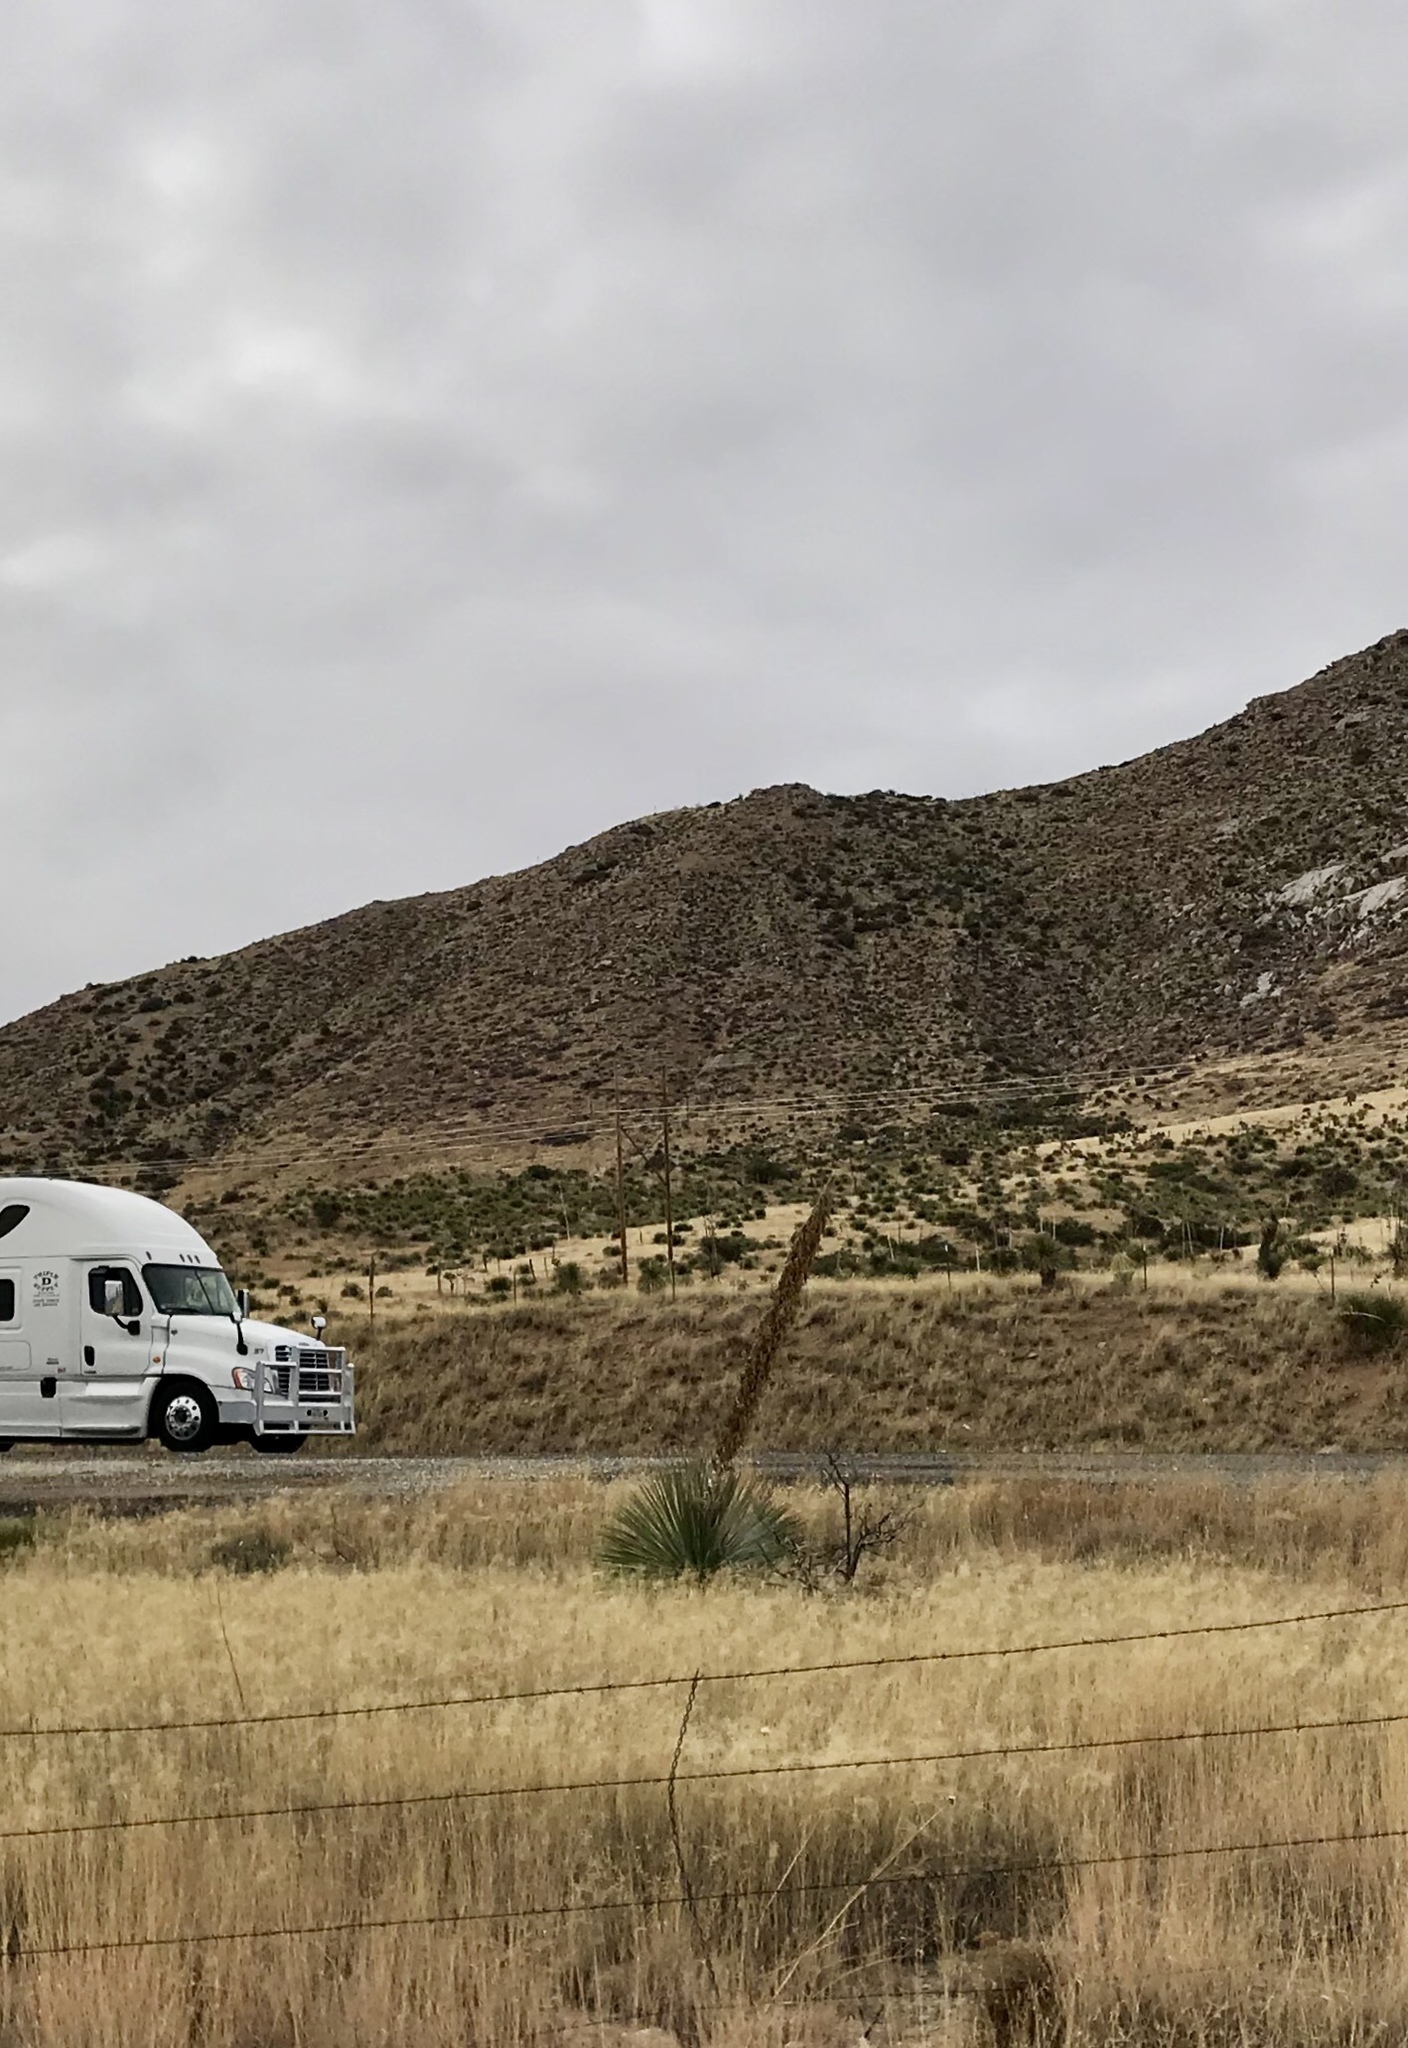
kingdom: Plantae
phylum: Tracheophyta
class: Liliopsida
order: Asparagales
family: Asparagaceae
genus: Dasylirion
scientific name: Dasylirion wheeleri
